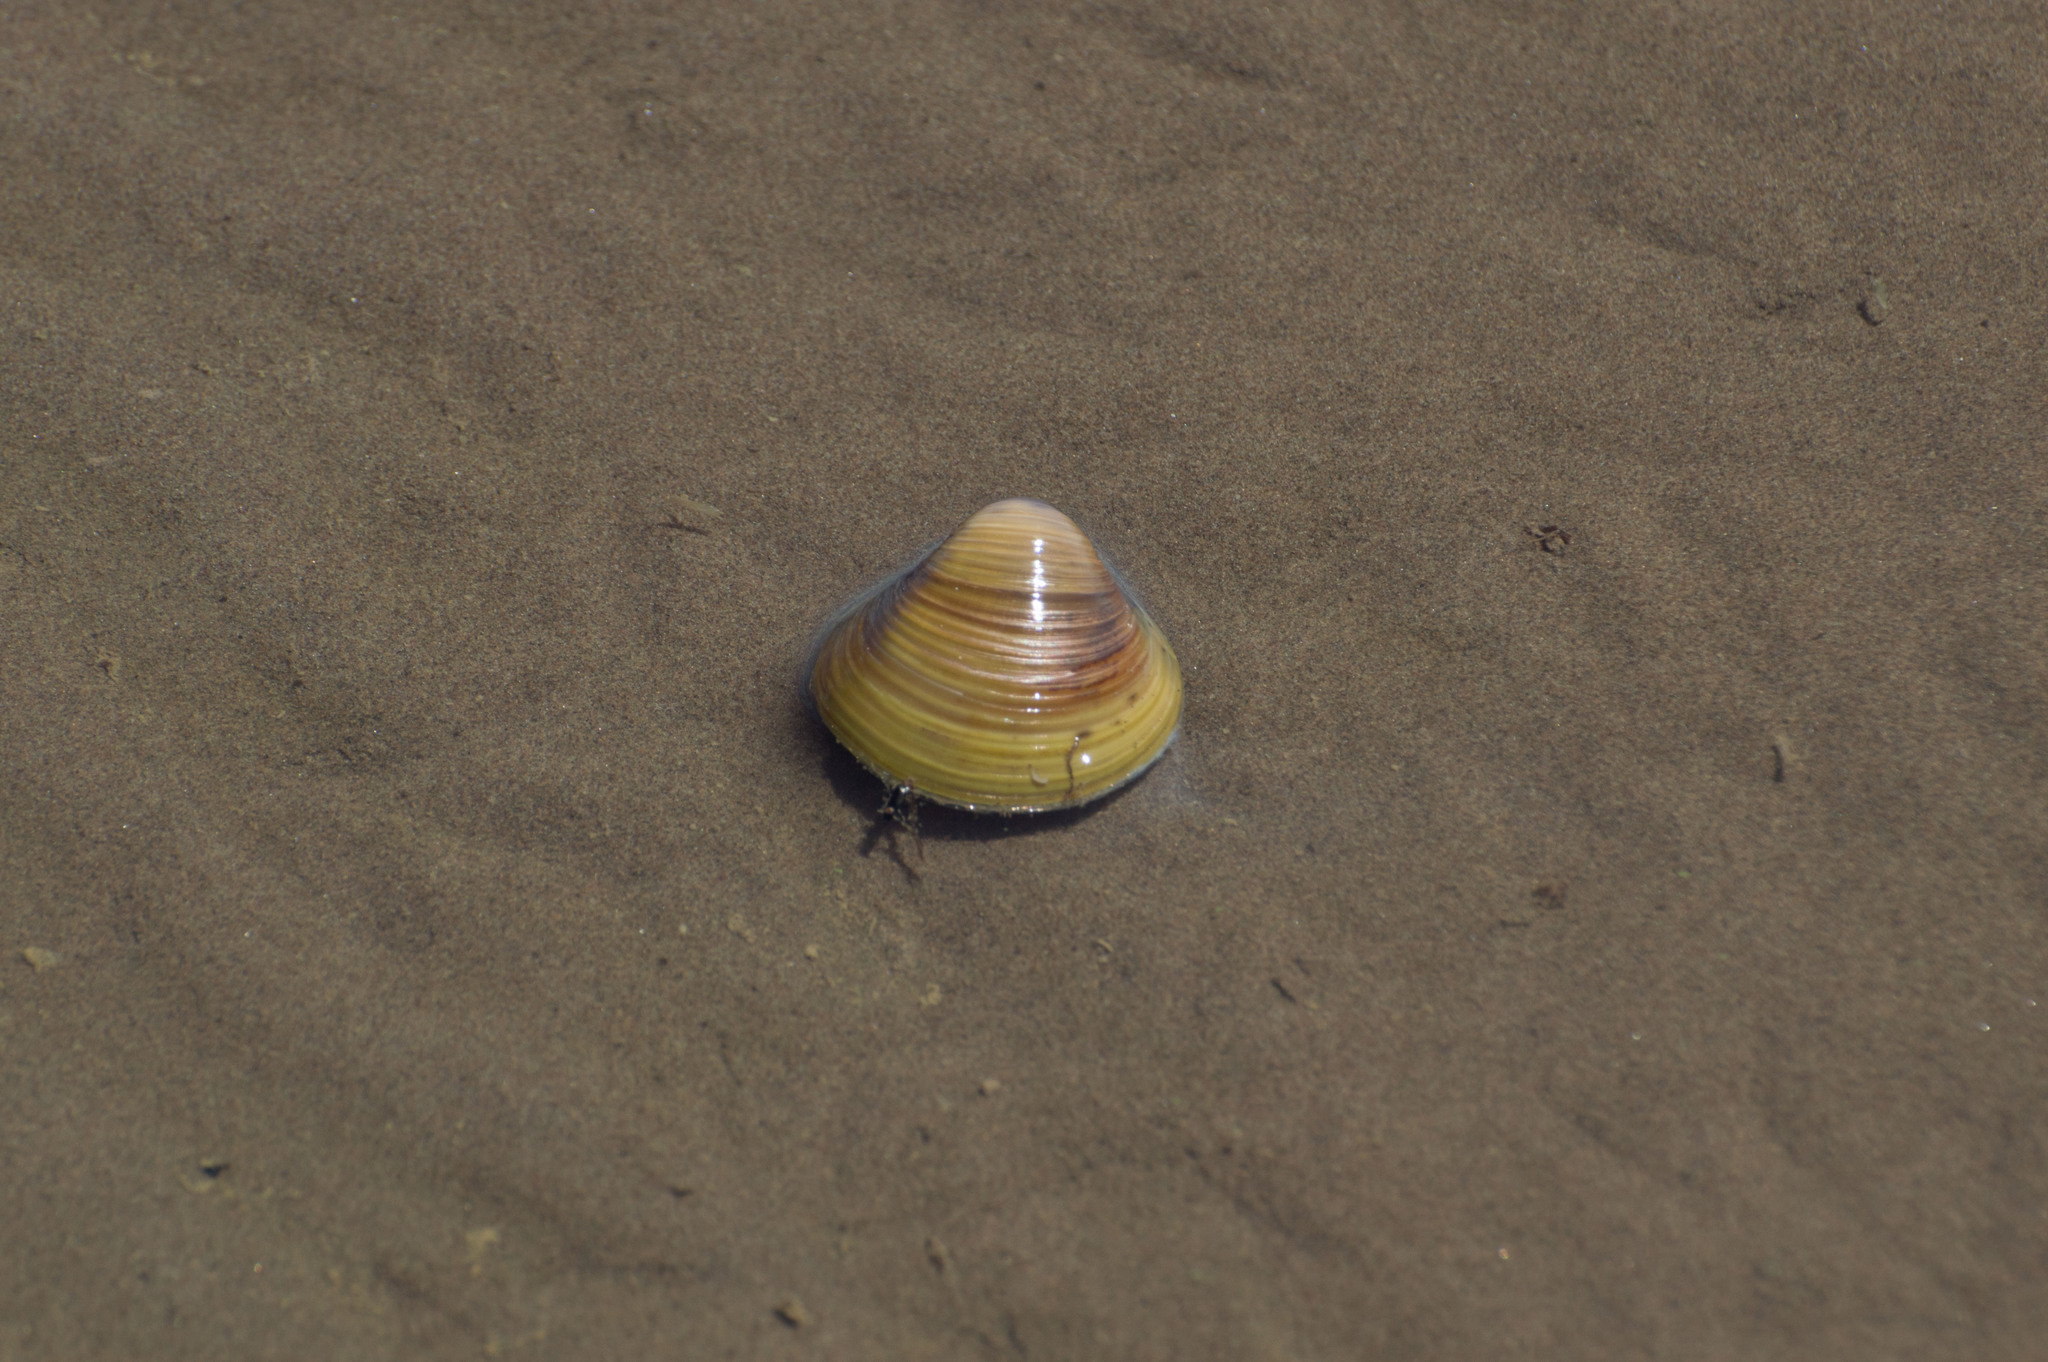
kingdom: Animalia
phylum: Mollusca
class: Bivalvia
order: Venerida
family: Cyrenidae
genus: Corbicula
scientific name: Corbicula fluminea
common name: Asian clam
